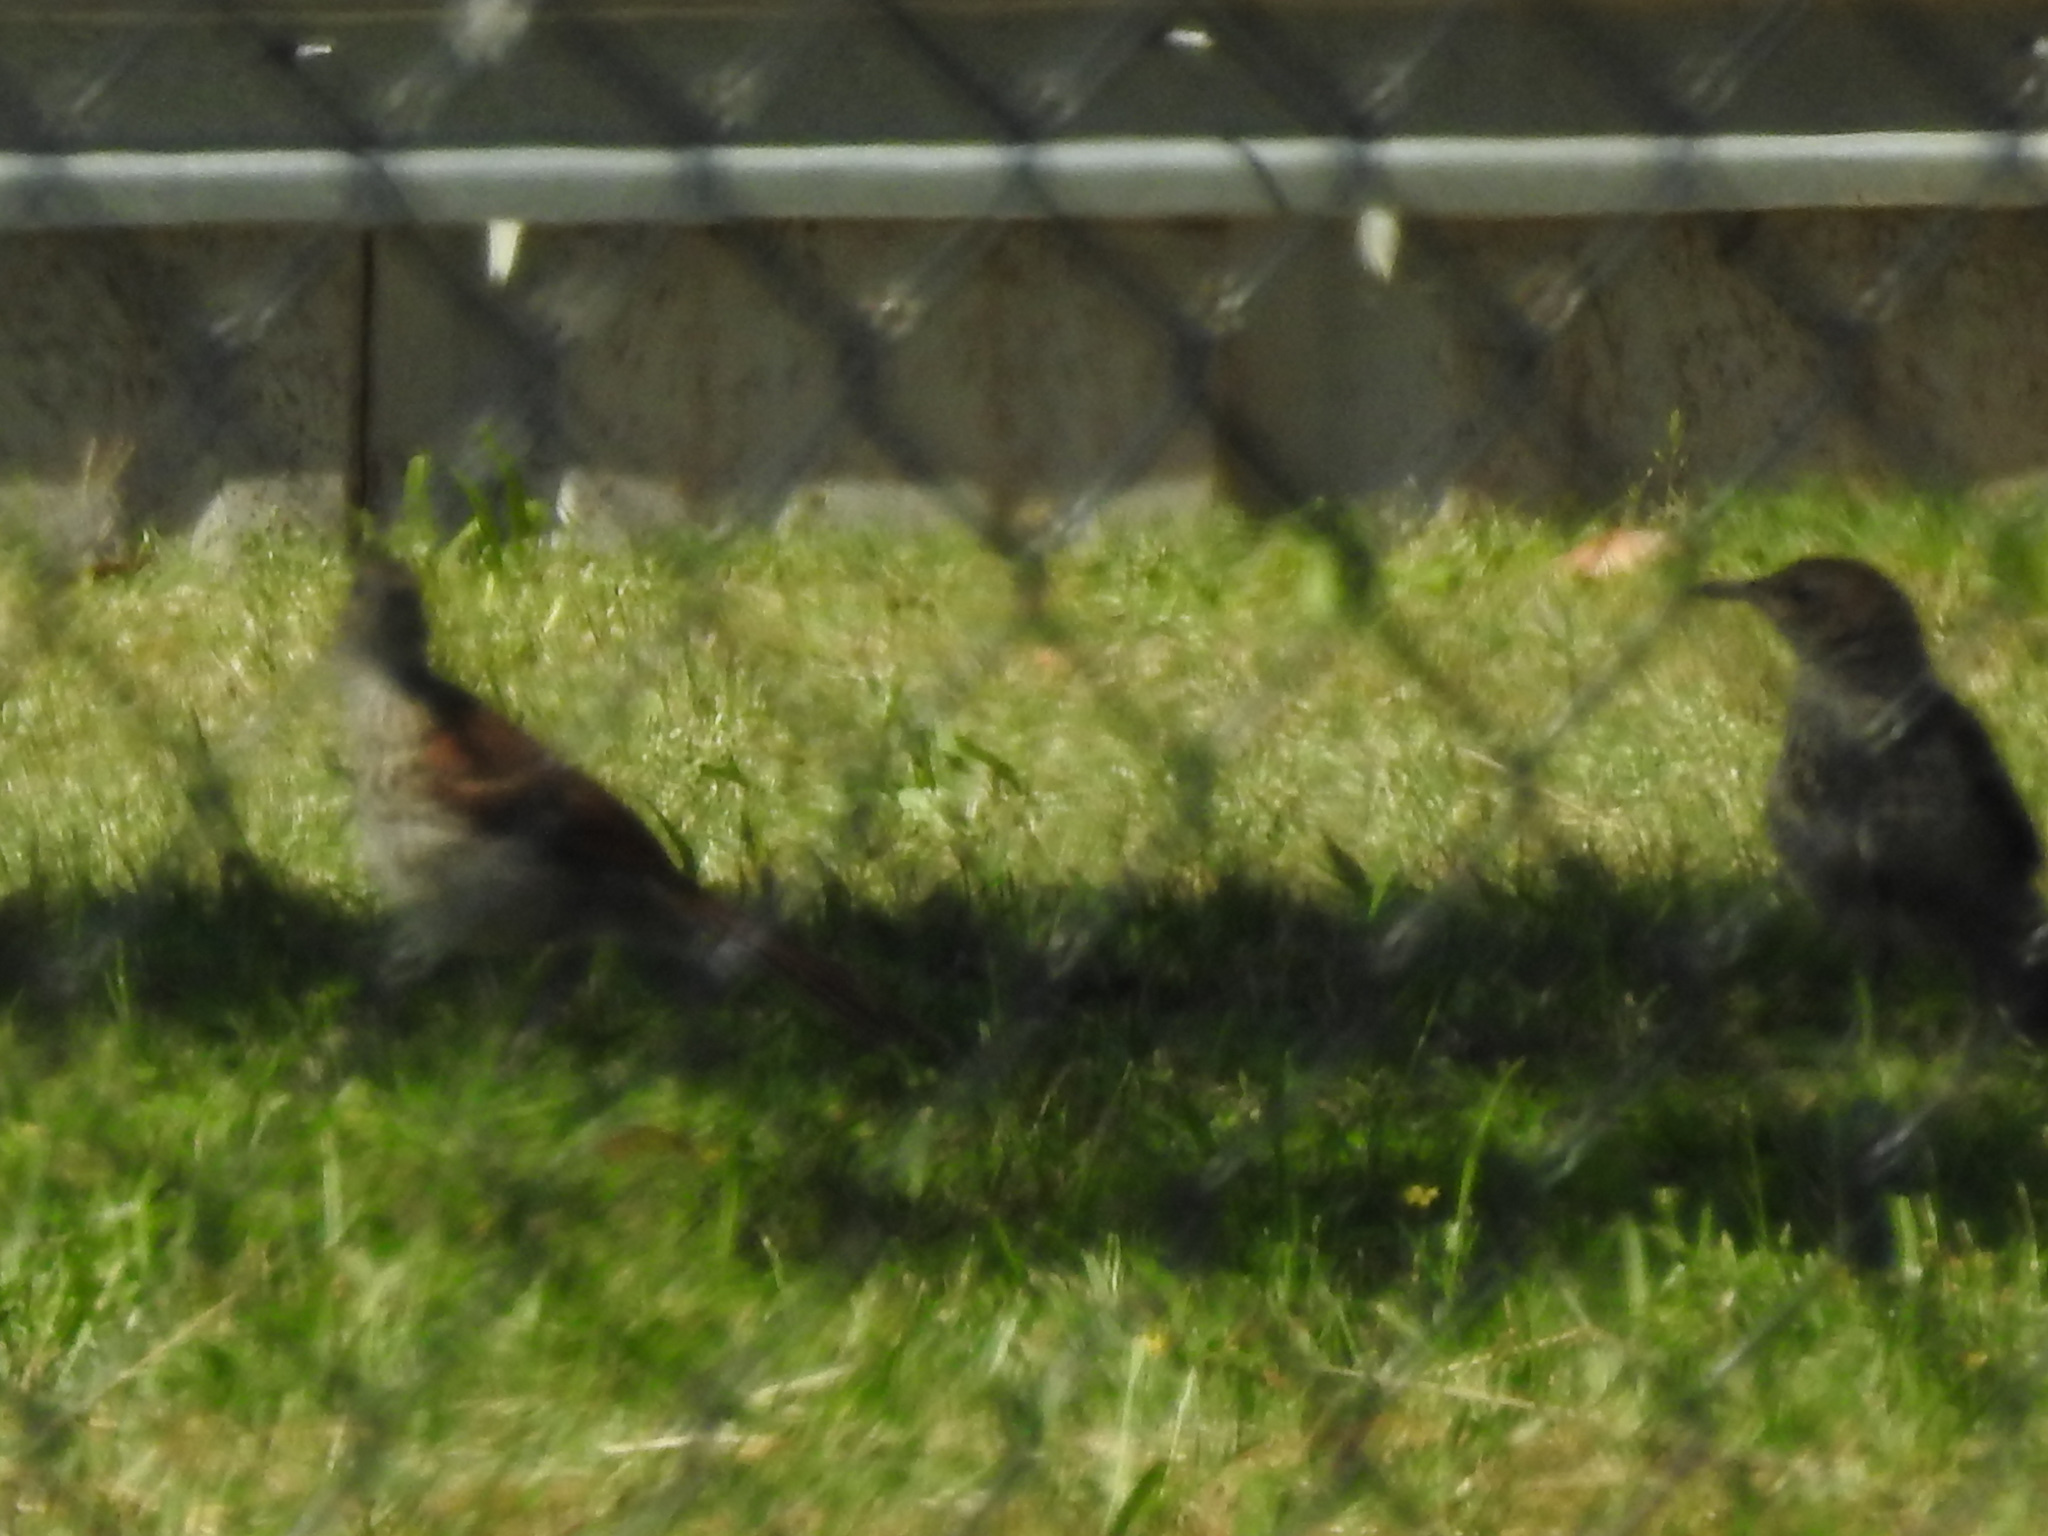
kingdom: Animalia
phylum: Chordata
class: Aves
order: Passeriformes
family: Mimidae
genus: Toxostoma
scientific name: Toxostoma rufum
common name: Brown thrasher
